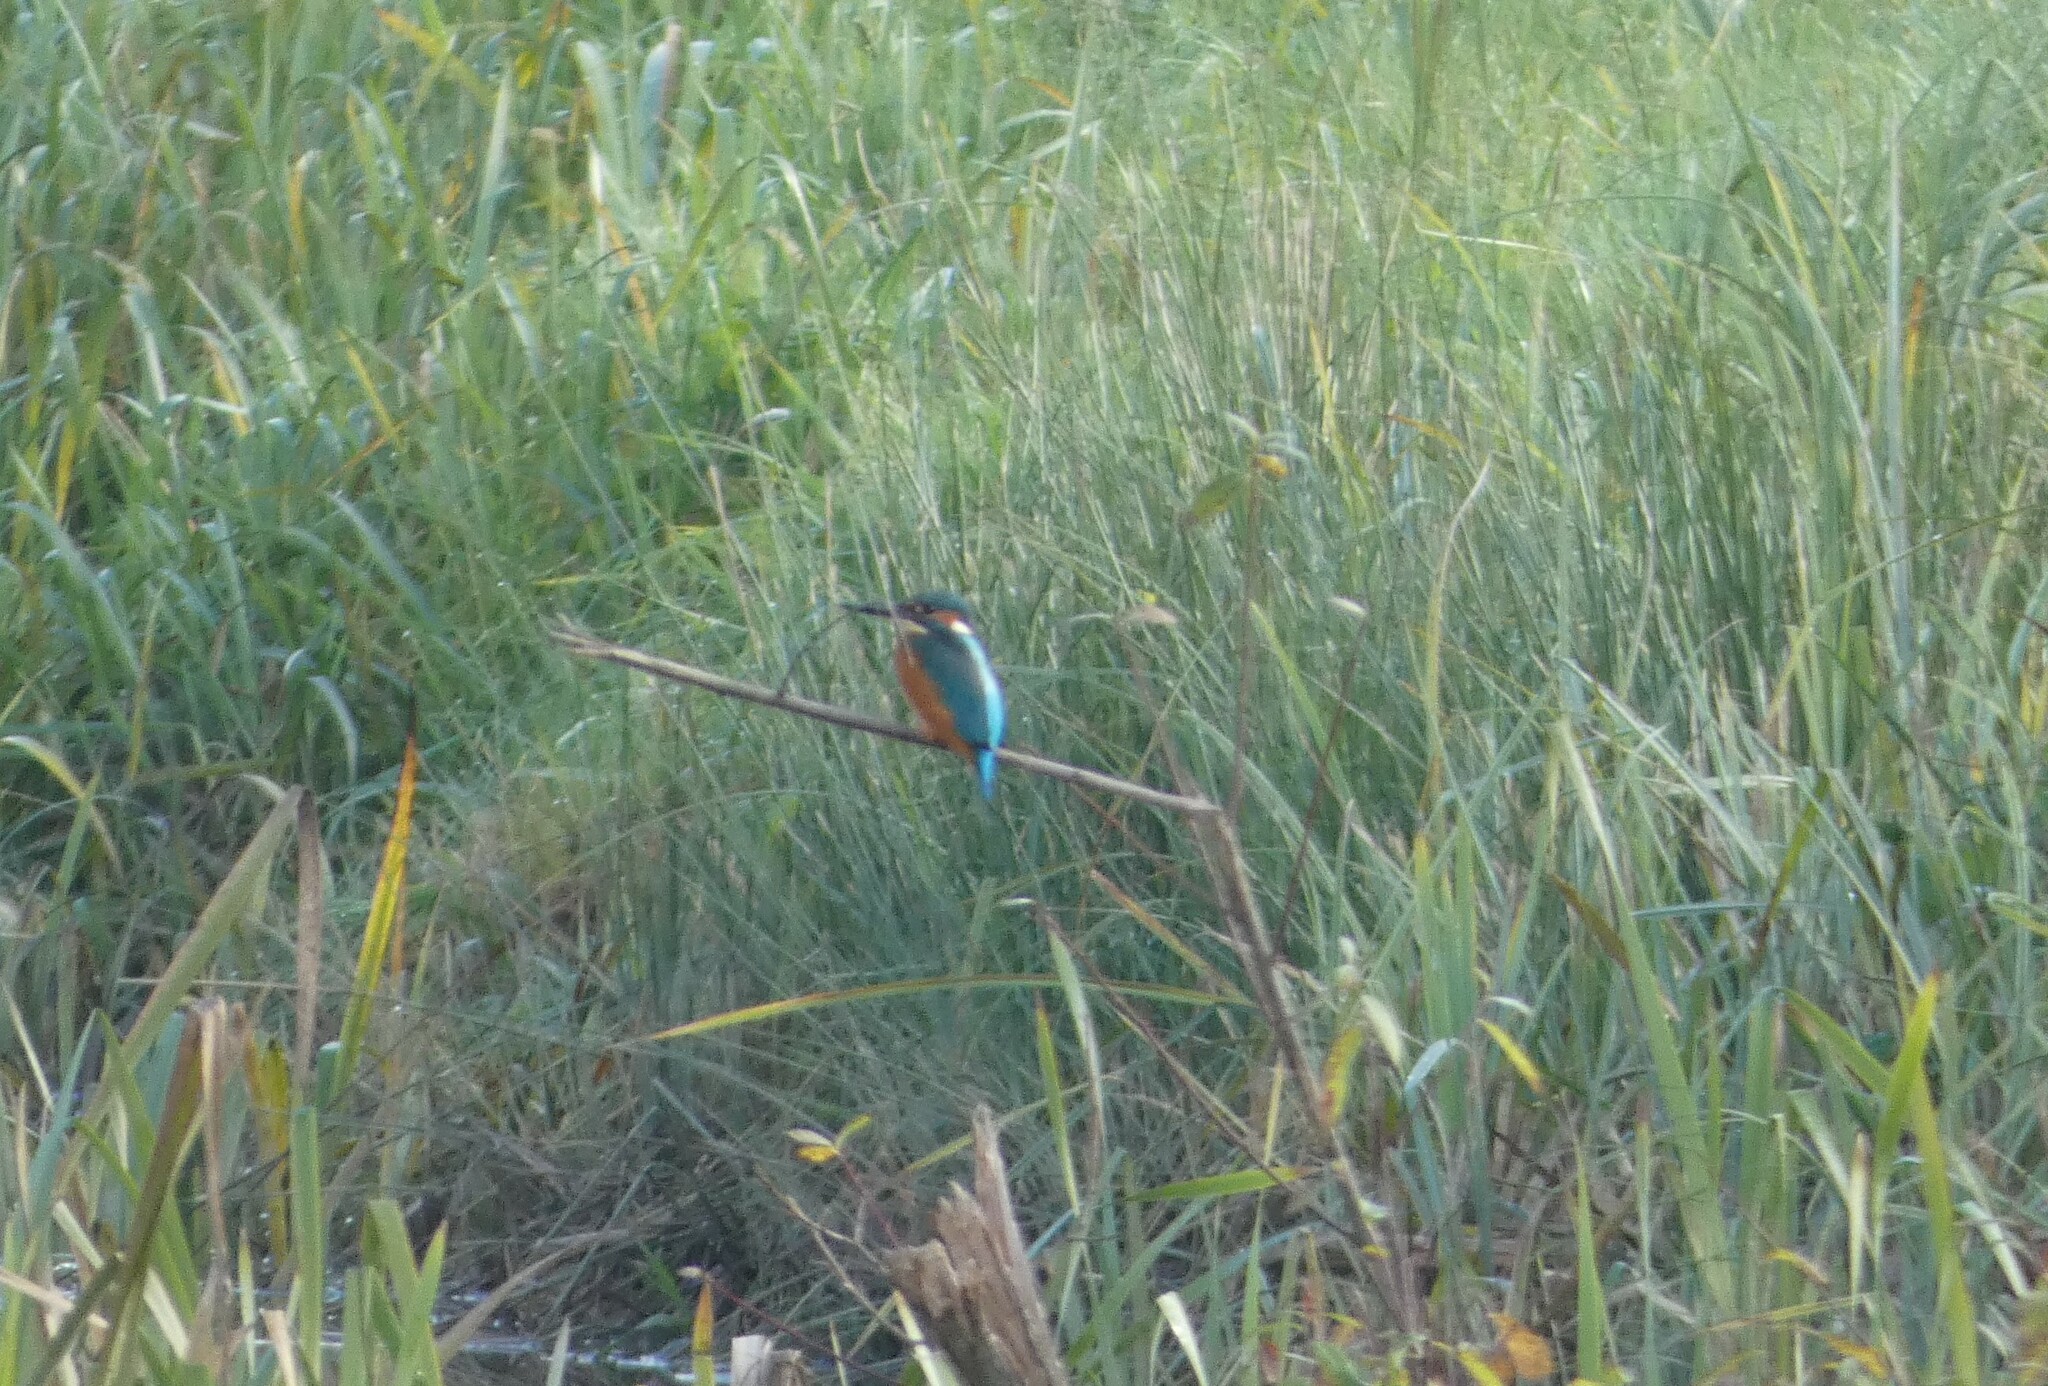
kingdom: Animalia
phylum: Chordata
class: Aves
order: Coraciiformes
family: Alcedinidae
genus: Alcedo
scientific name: Alcedo atthis
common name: Common kingfisher
